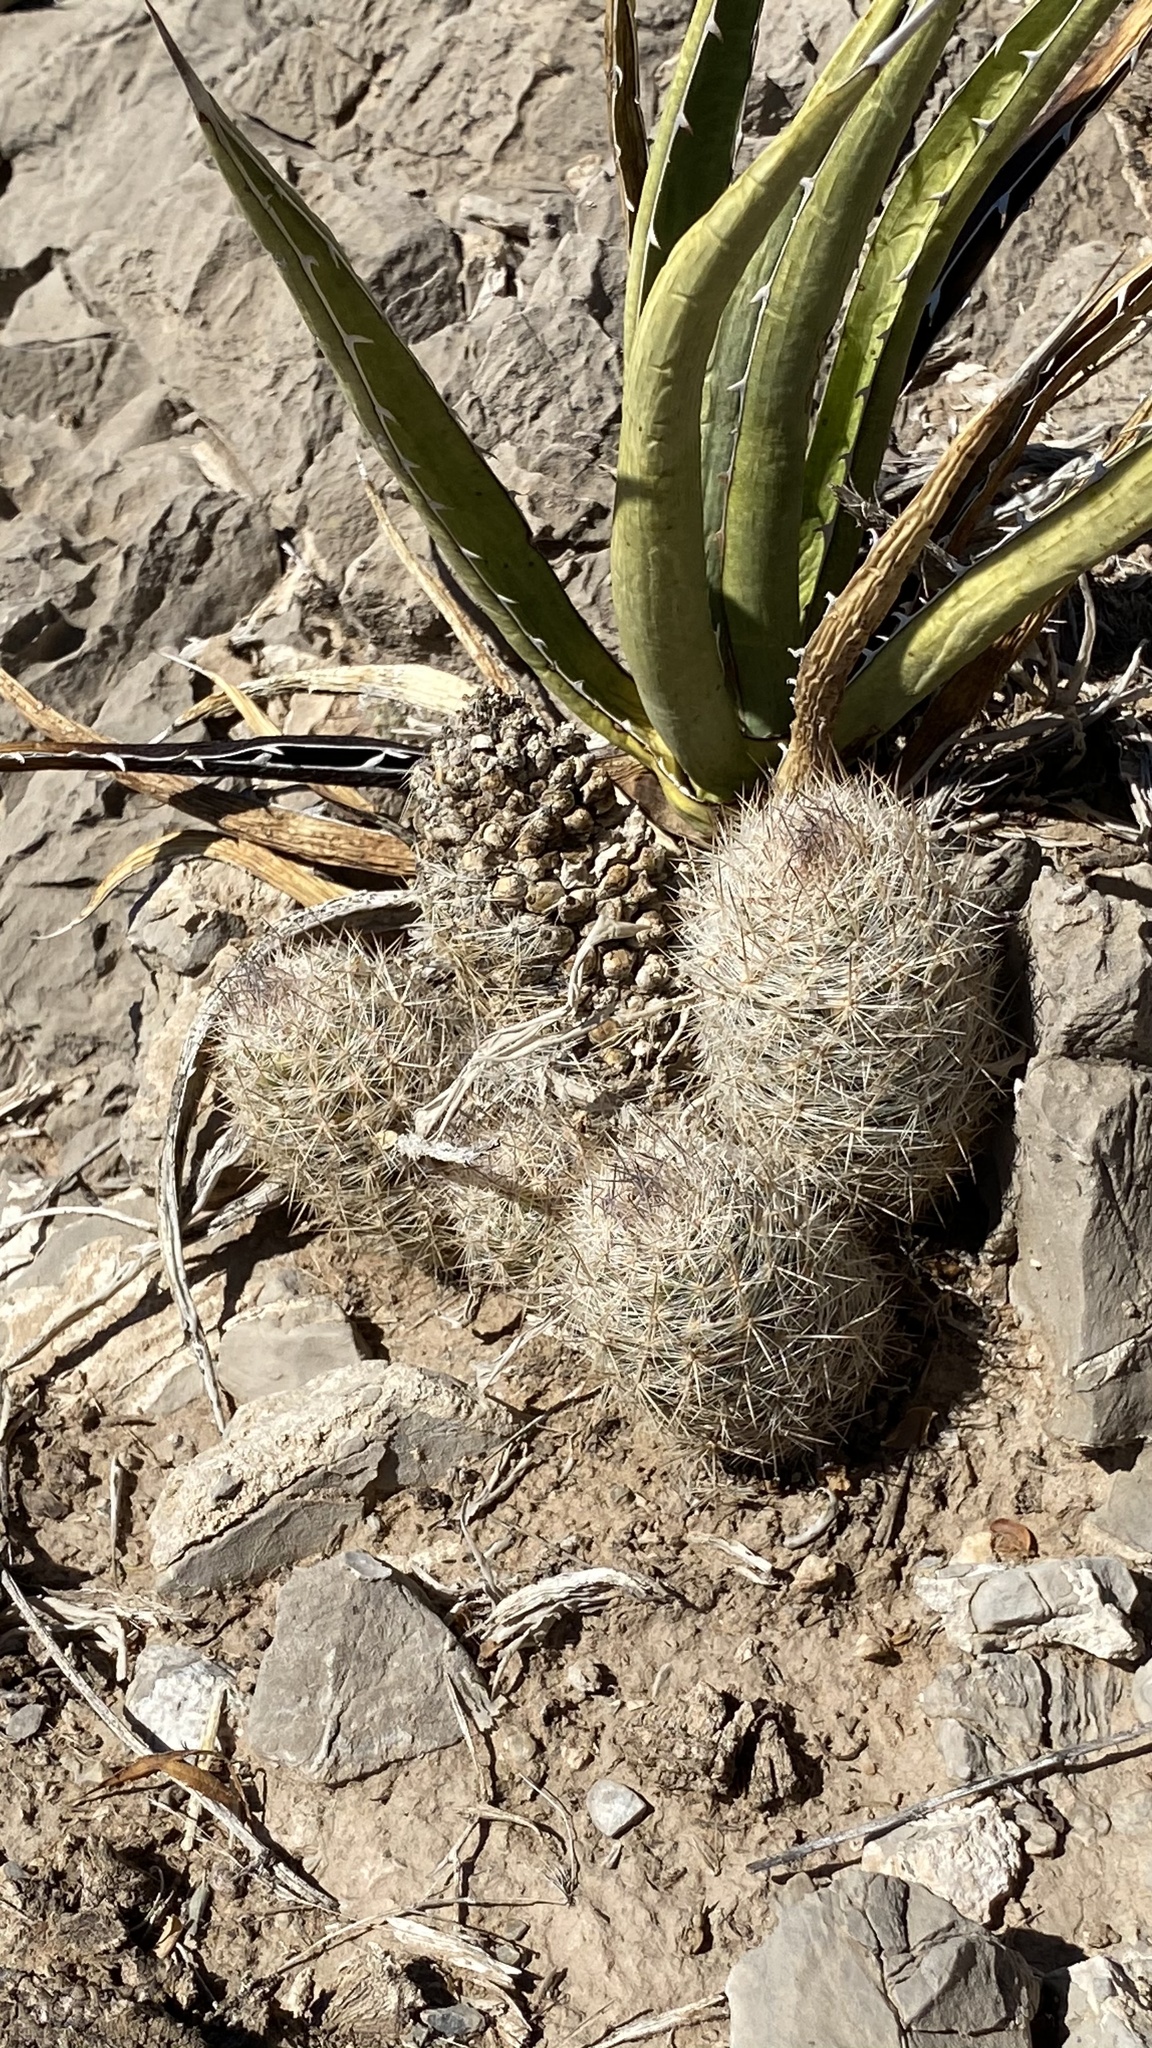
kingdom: Plantae
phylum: Tracheophyta
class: Magnoliopsida
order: Caryophyllales
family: Cactaceae
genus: Pelecyphora
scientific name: Pelecyphora tuberculosa
